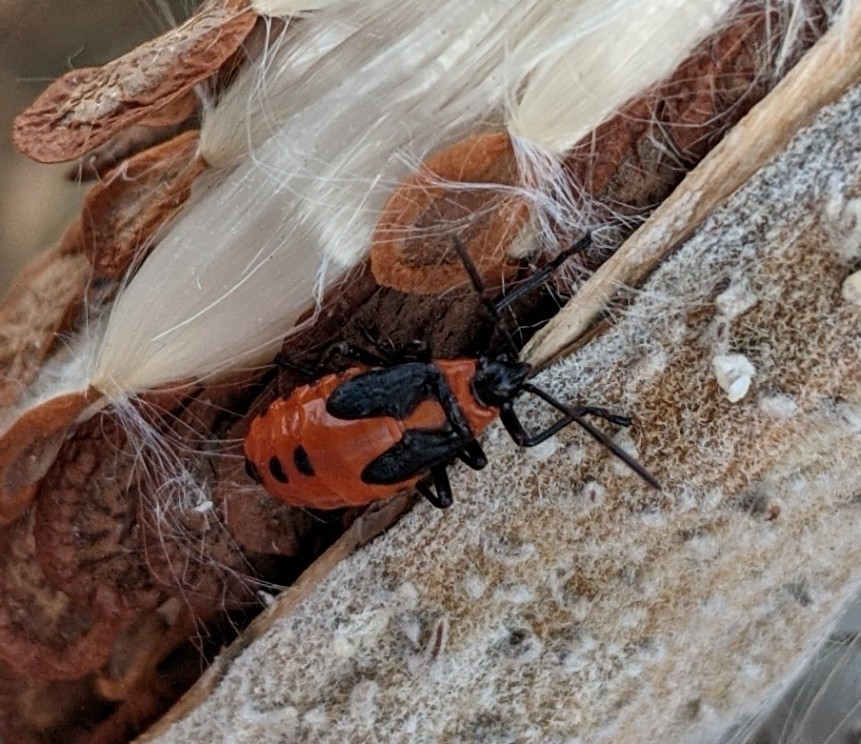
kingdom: Animalia
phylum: Arthropoda
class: Insecta
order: Hemiptera
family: Lygaeidae
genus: Oncopeltus
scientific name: Oncopeltus fasciatus
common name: Large milkweed bug
